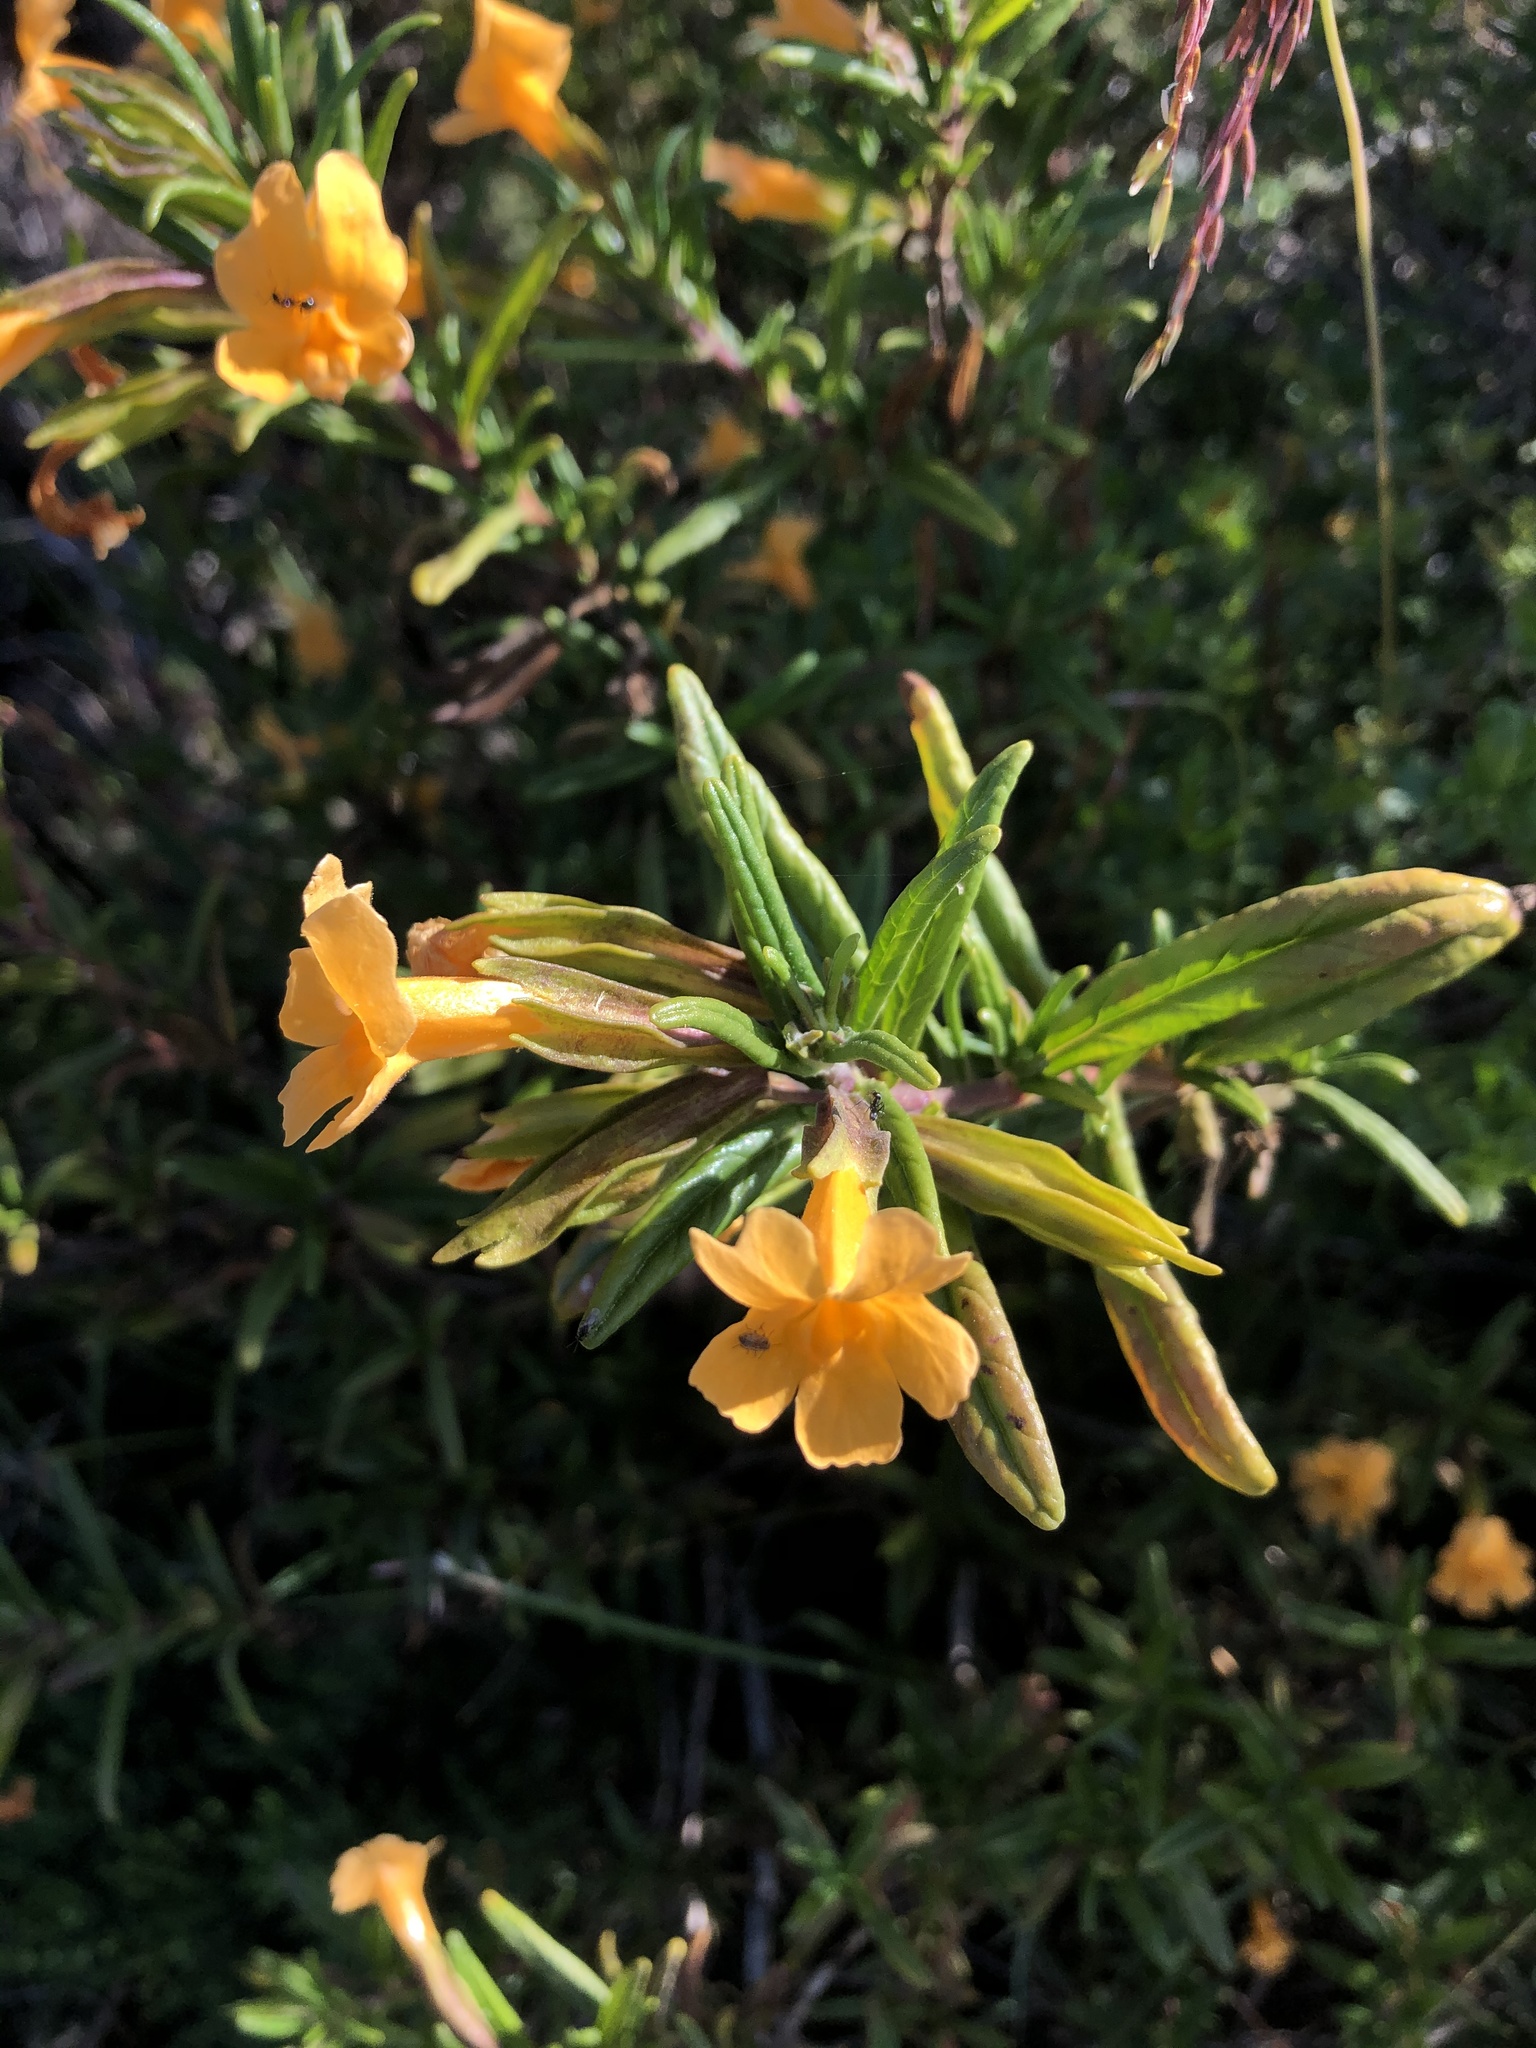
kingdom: Plantae
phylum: Tracheophyta
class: Magnoliopsida
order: Lamiales
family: Phrymaceae
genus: Diplacus
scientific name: Diplacus aurantiacus
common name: Bush monkey-flower
